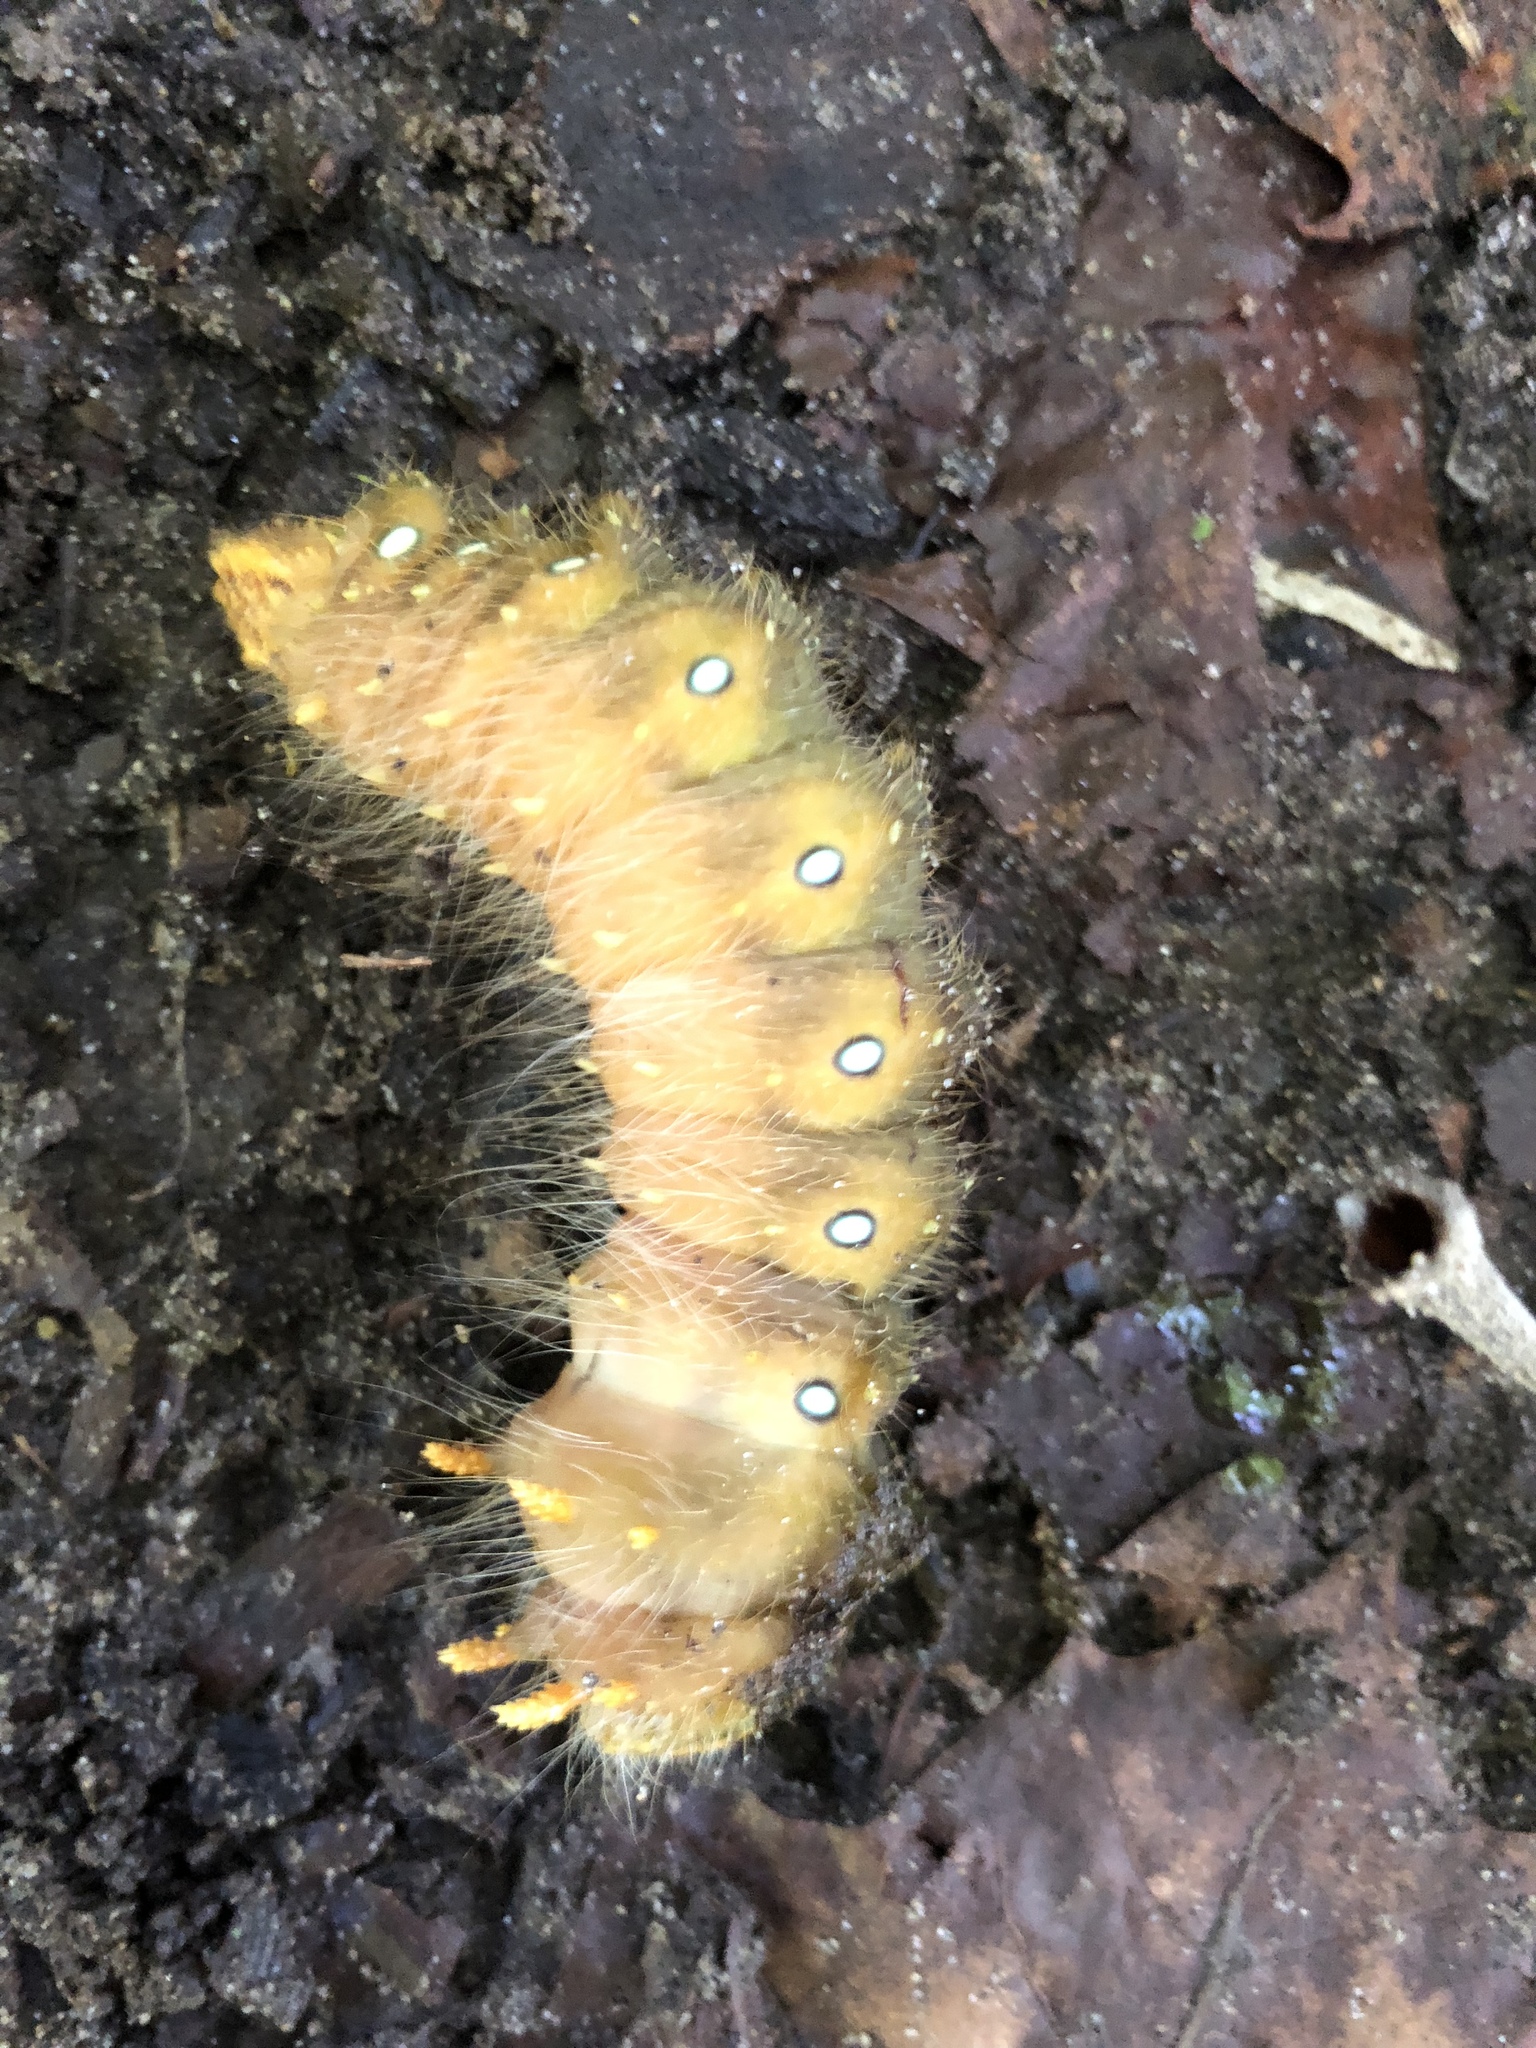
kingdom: Animalia
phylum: Arthropoda
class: Insecta
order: Lepidoptera
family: Saturniidae
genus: Eacles
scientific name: Eacles imperialis
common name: Imperial moth
